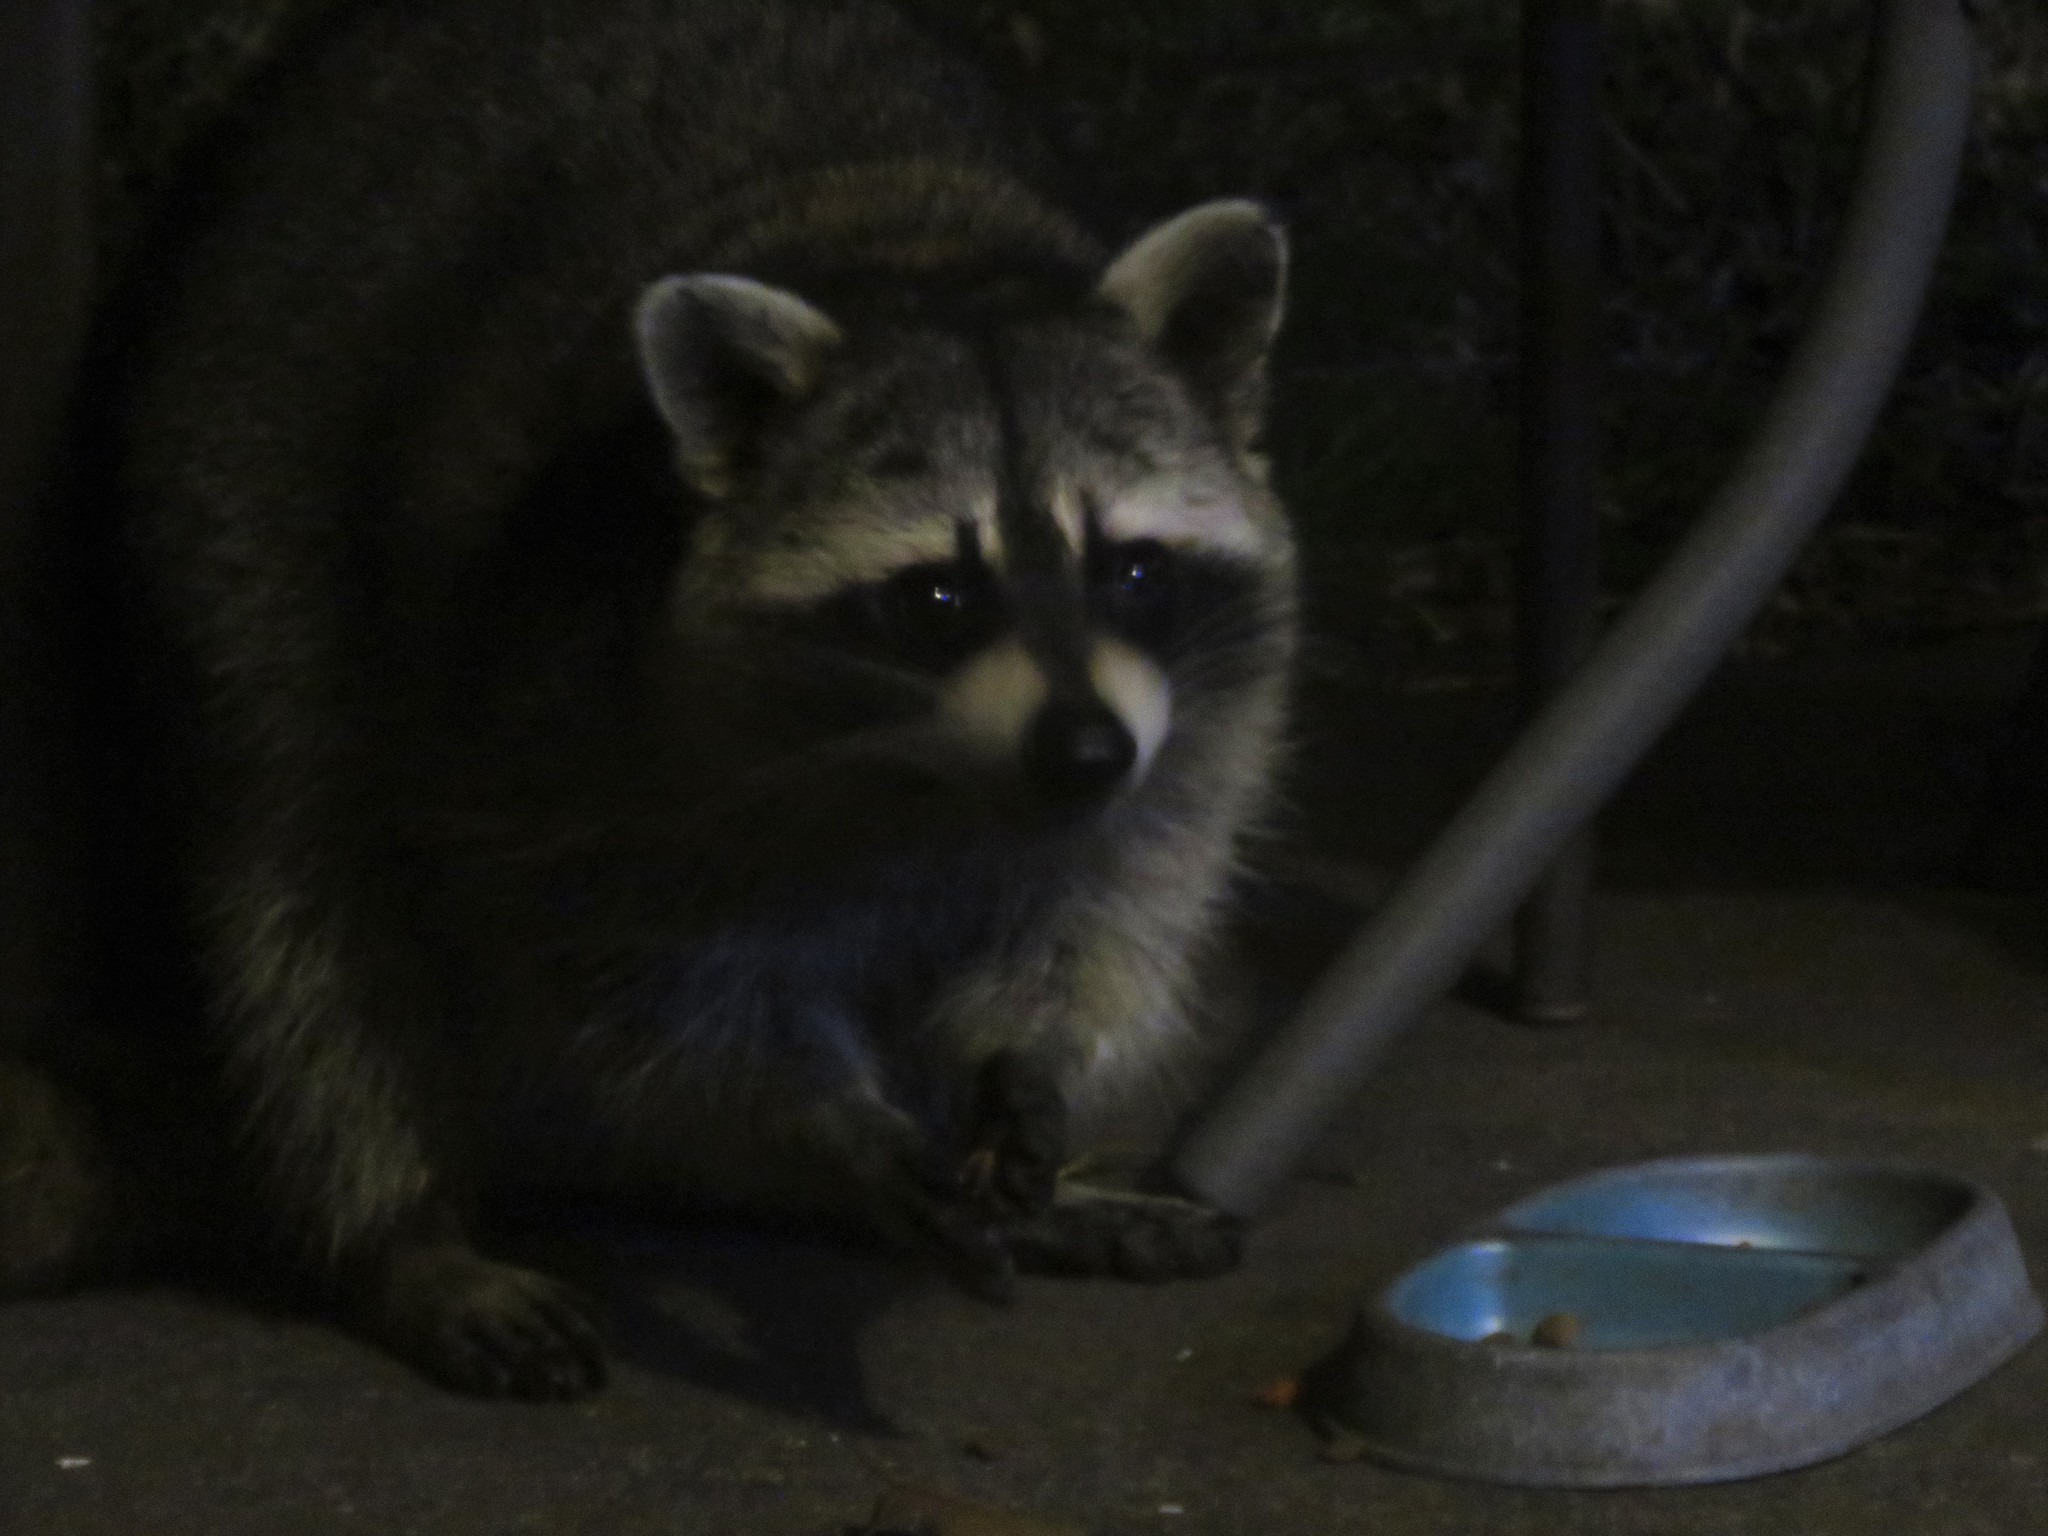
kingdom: Animalia
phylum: Chordata
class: Mammalia
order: Carnivora
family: Procyonidae
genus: Procyon
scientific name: Procyon lotor
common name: Raccoon
